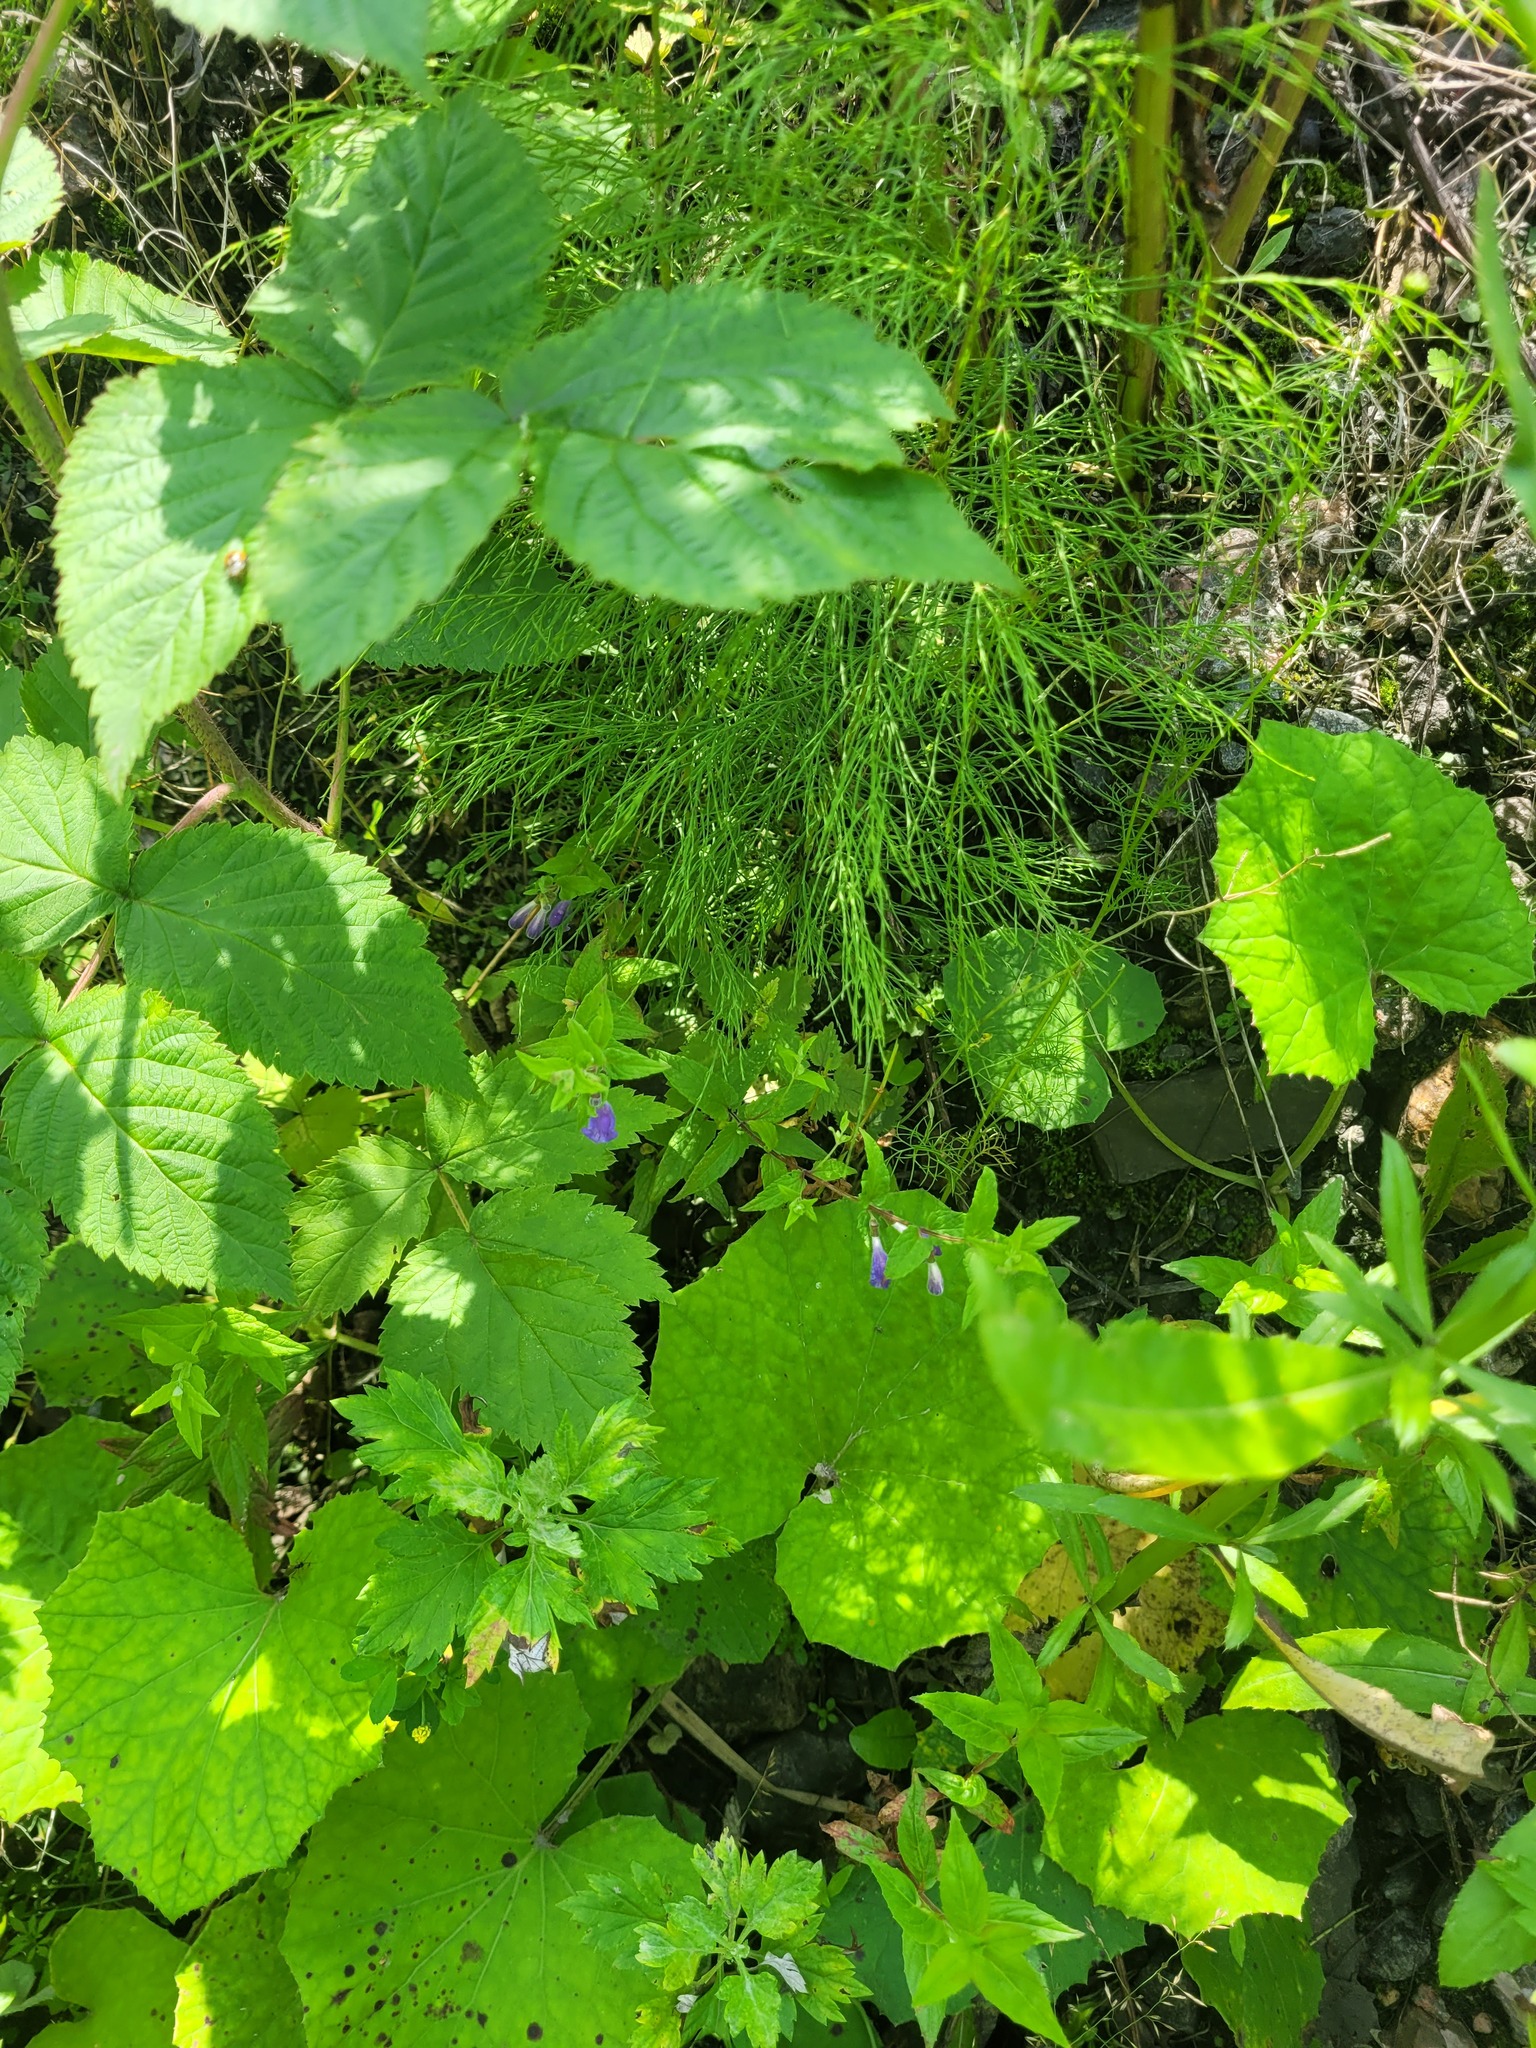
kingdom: Plantae
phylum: Tracheophyta
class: Magnoliopsida
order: Lamiales
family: Lamiaceae
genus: Scutellaria
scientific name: Scutellaria galericulata
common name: Skullcap
